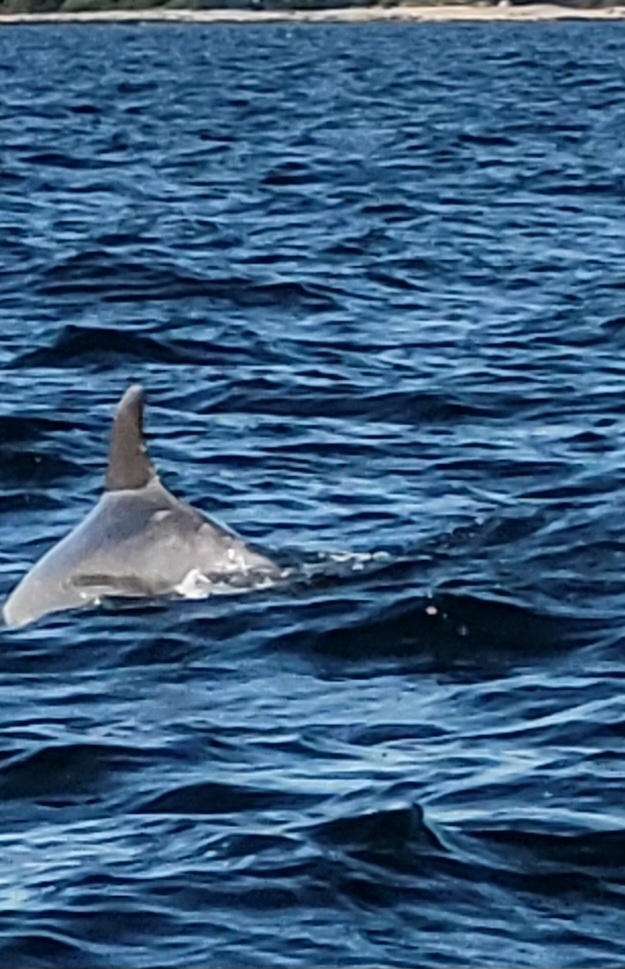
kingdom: Animalia
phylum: Chordata
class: Mammalia
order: Cetacea
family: Delphinidae
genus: Tursiops
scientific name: Tursiops truncatus
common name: Bottlenose dolphin
